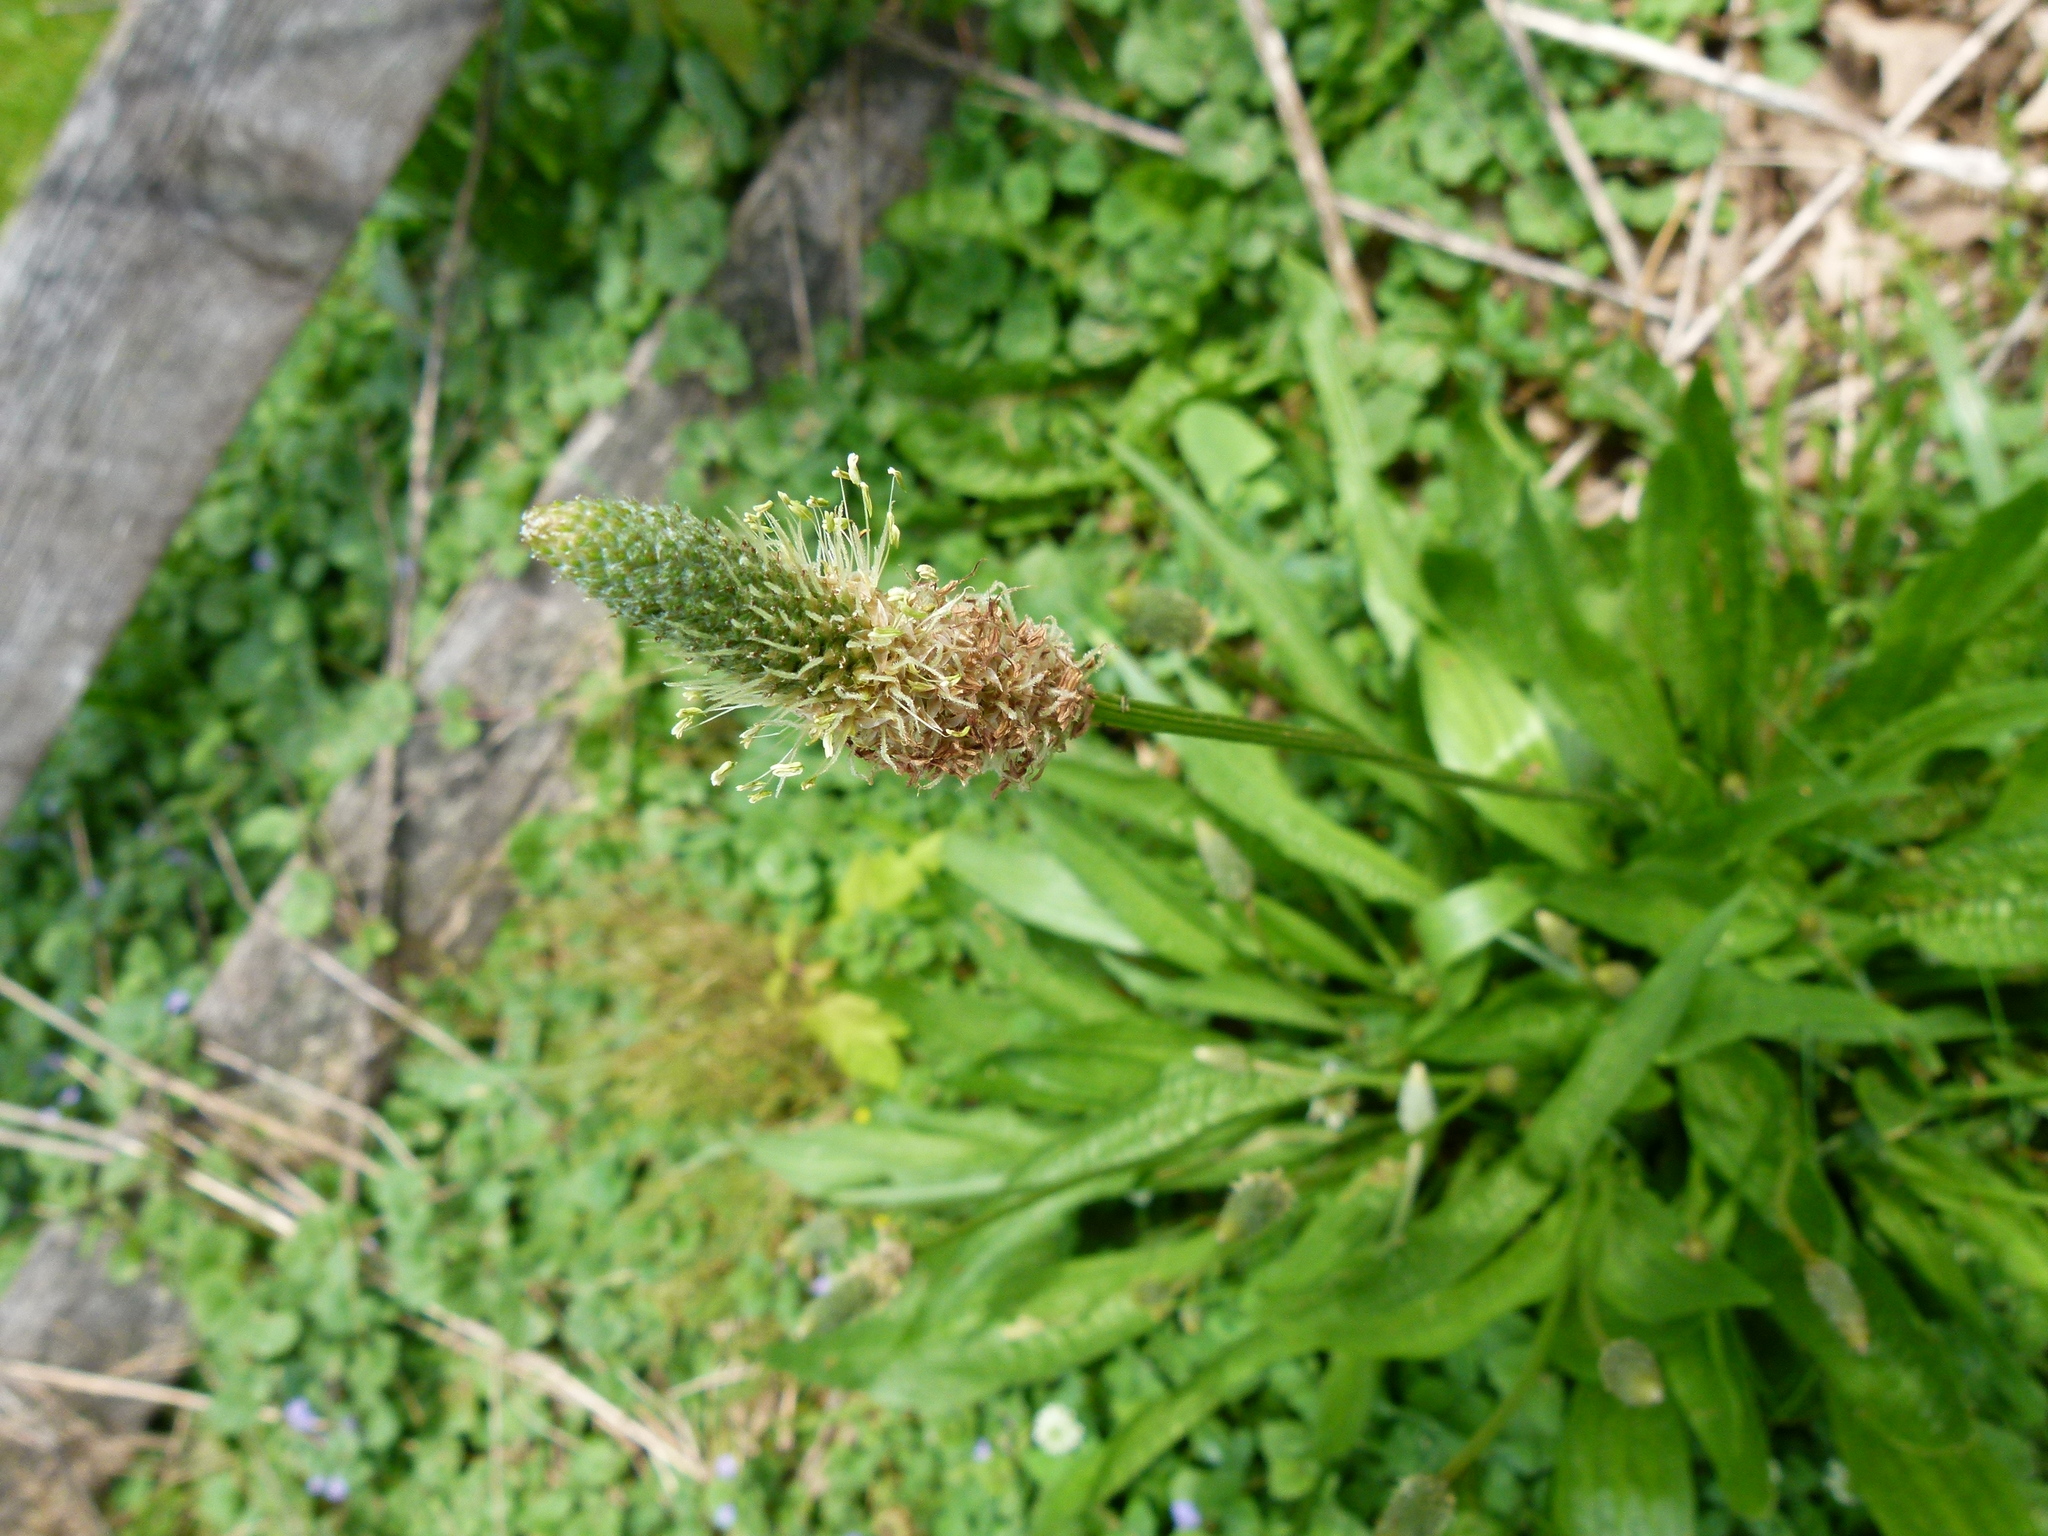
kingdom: Plantae
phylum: Tracheophyta
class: Magnoliopsida
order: Lamiales
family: Plantaginaceae
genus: Plantago
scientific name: Plantago lanceolata
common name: Ribwort plantain
